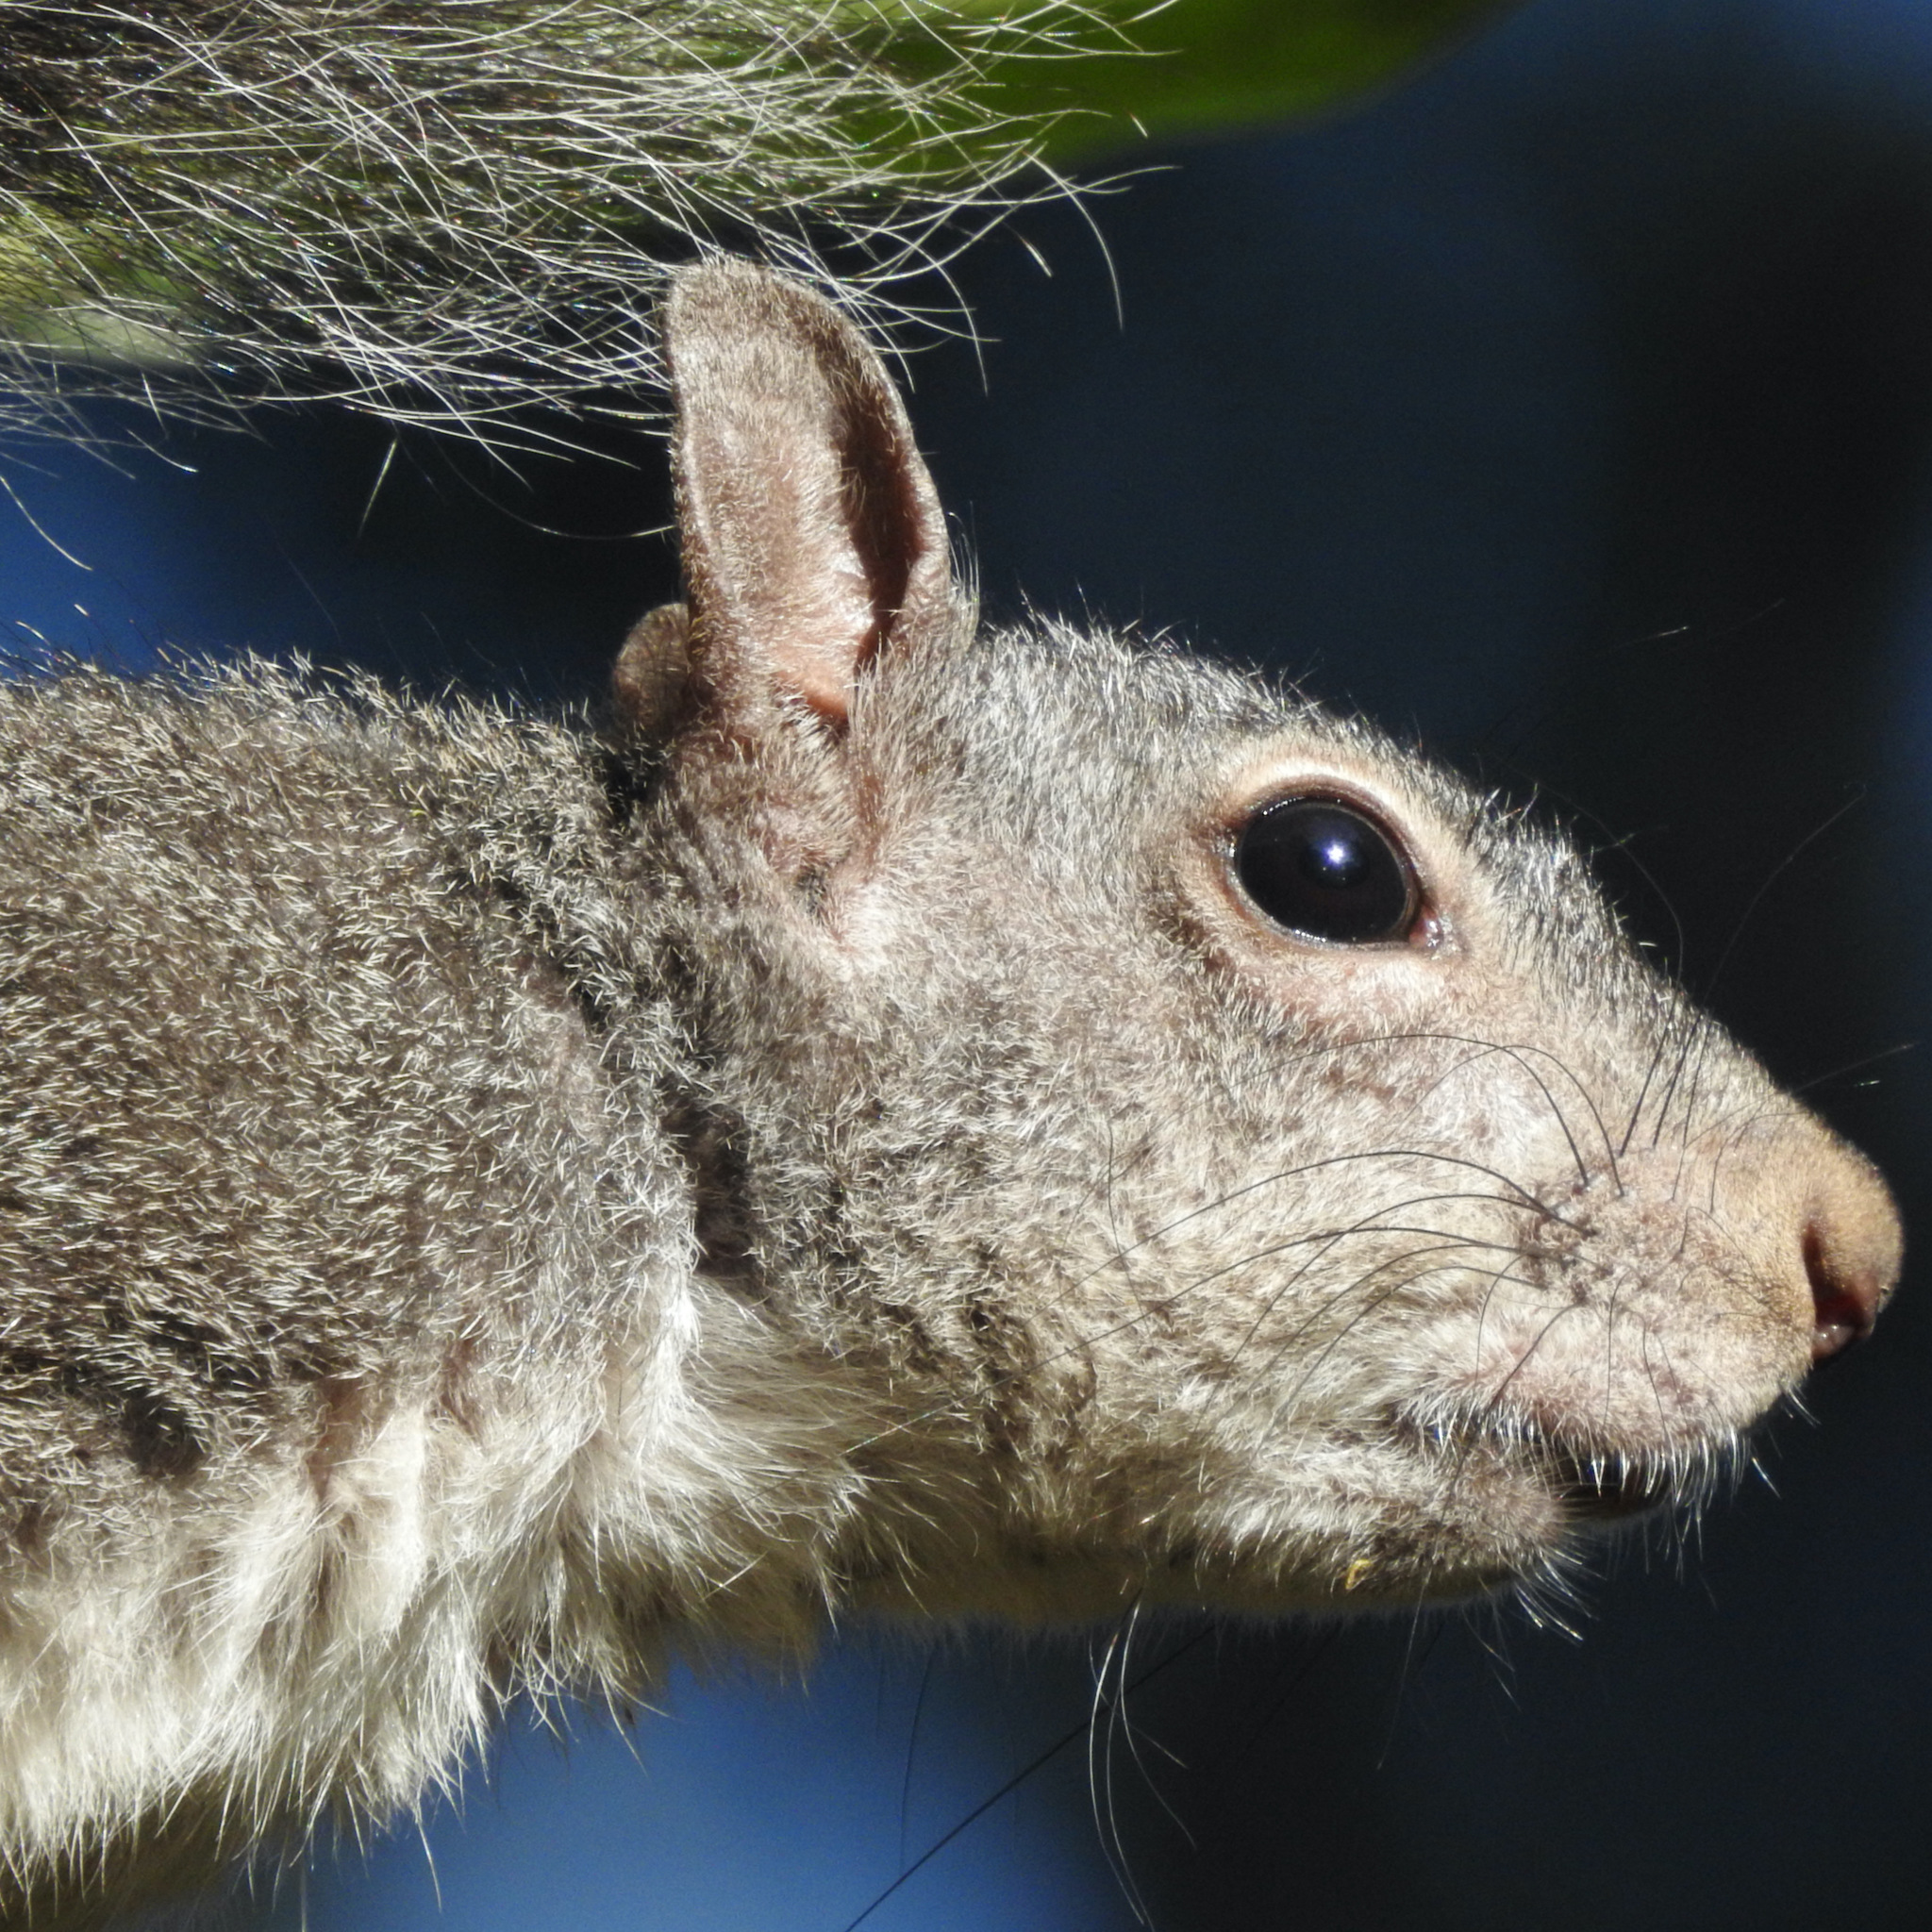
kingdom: Animalia
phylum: Chordata
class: Mammalia
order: Rodentia
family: Sciuridae
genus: Sciurus
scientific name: Sciurus griseus
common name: Western gray squirrel
